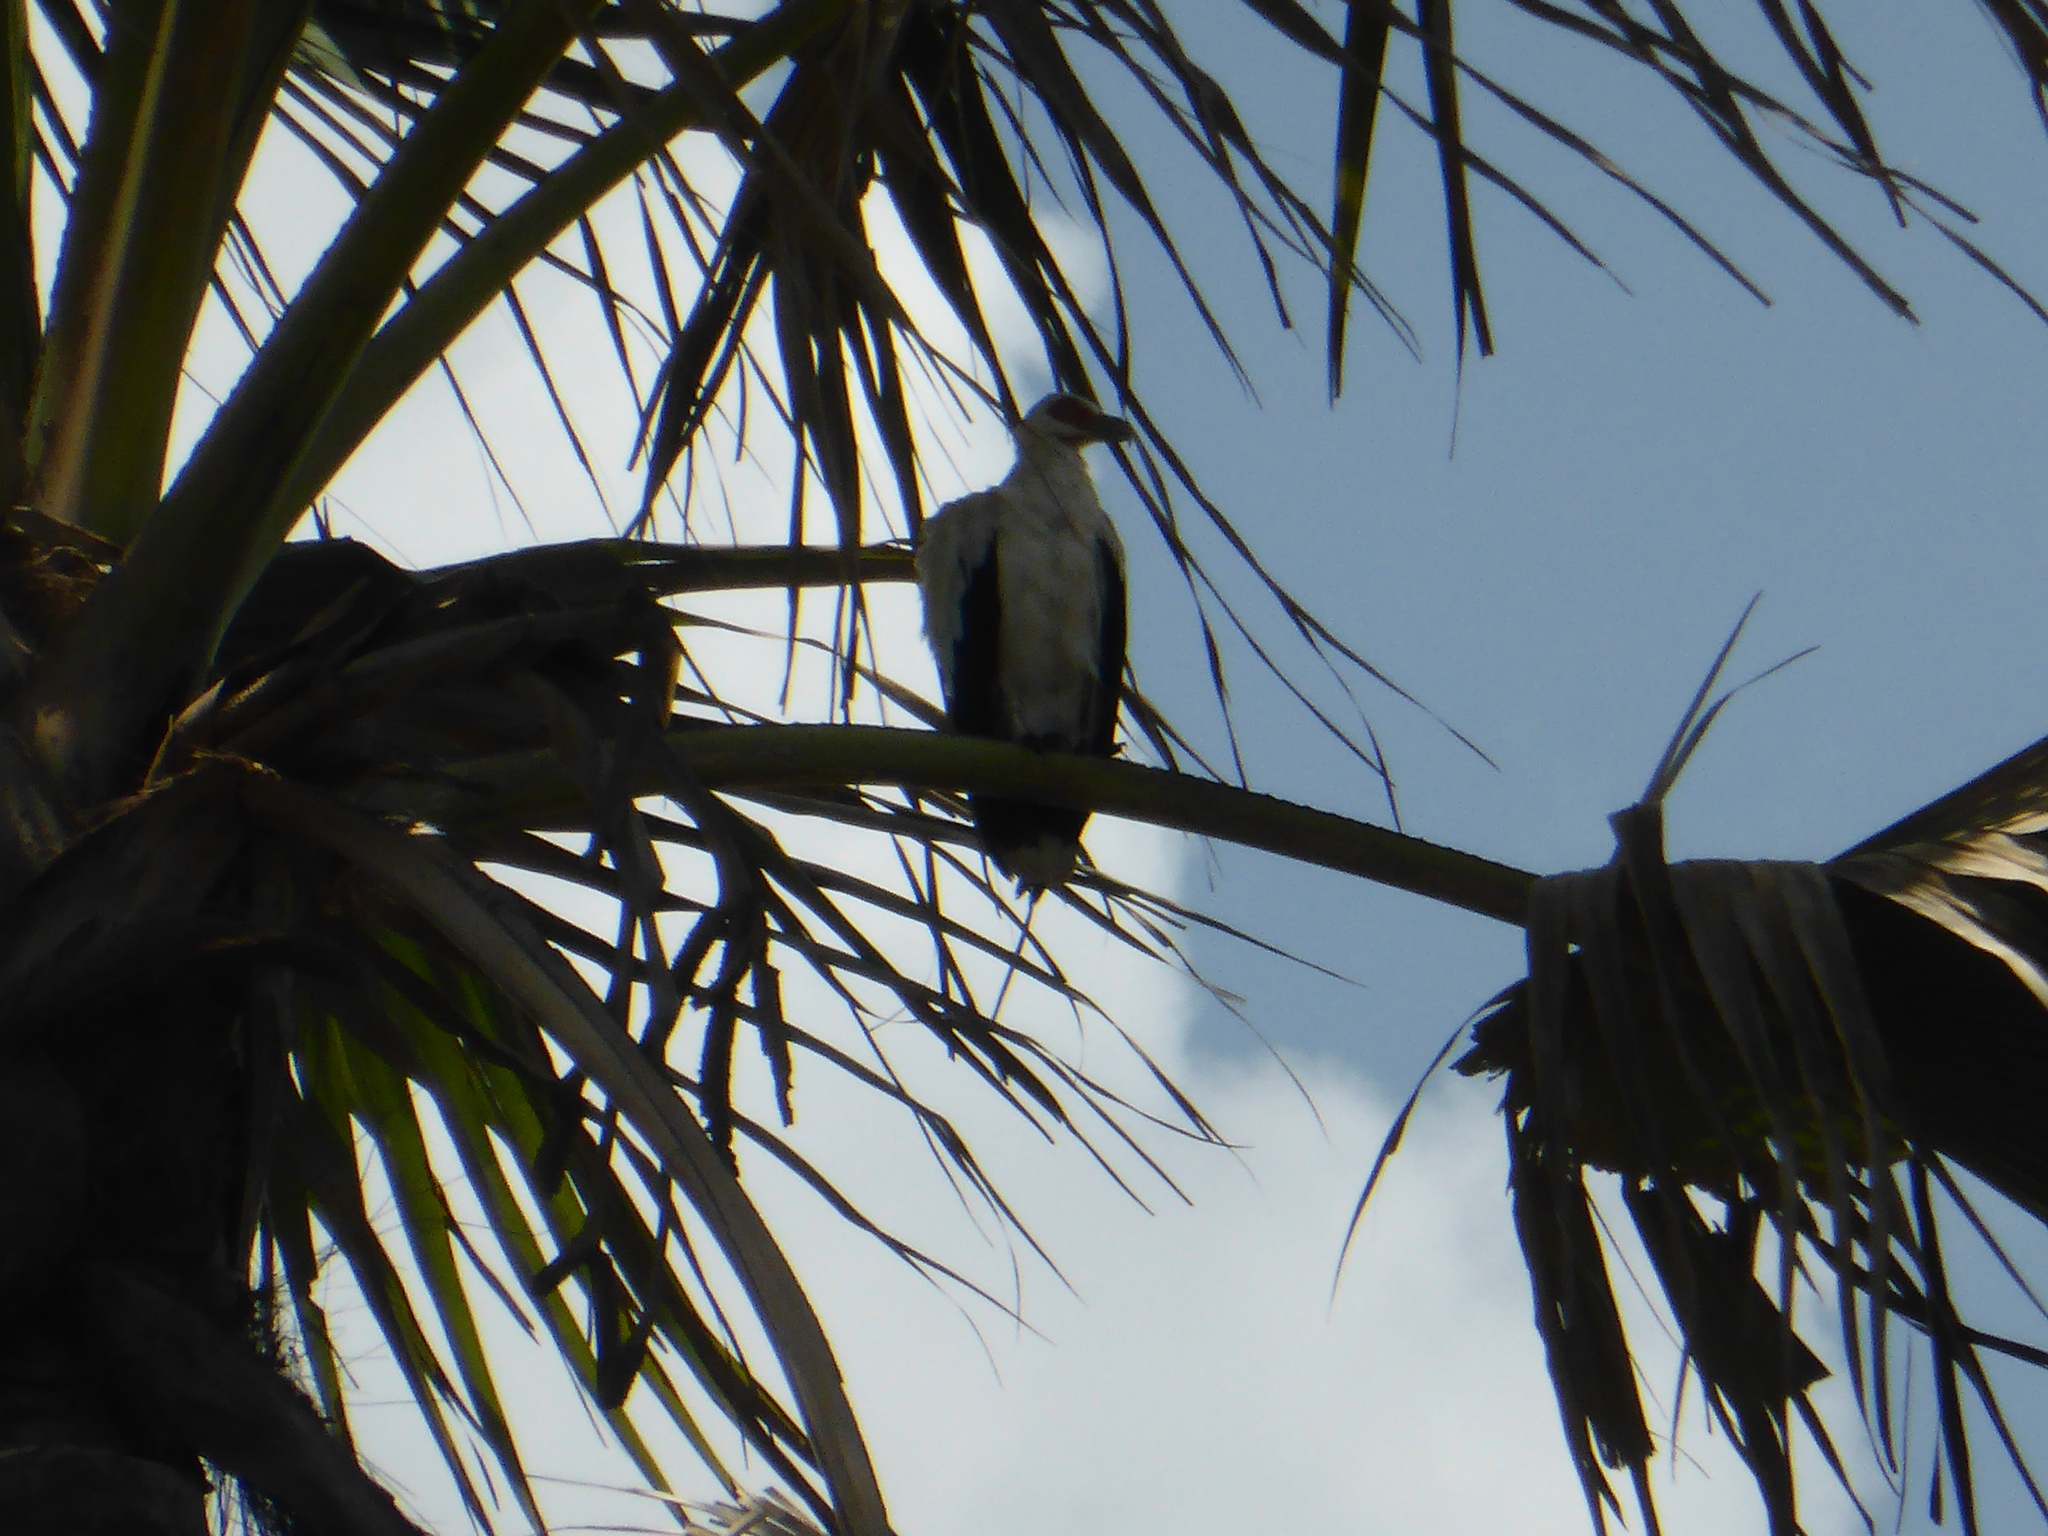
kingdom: Animalia
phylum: Chordata
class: Aves
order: Accipitriformes
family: Accipitridae
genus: Gypohierax
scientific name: Gypohierax angolensis
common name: Palm-nut vulture
